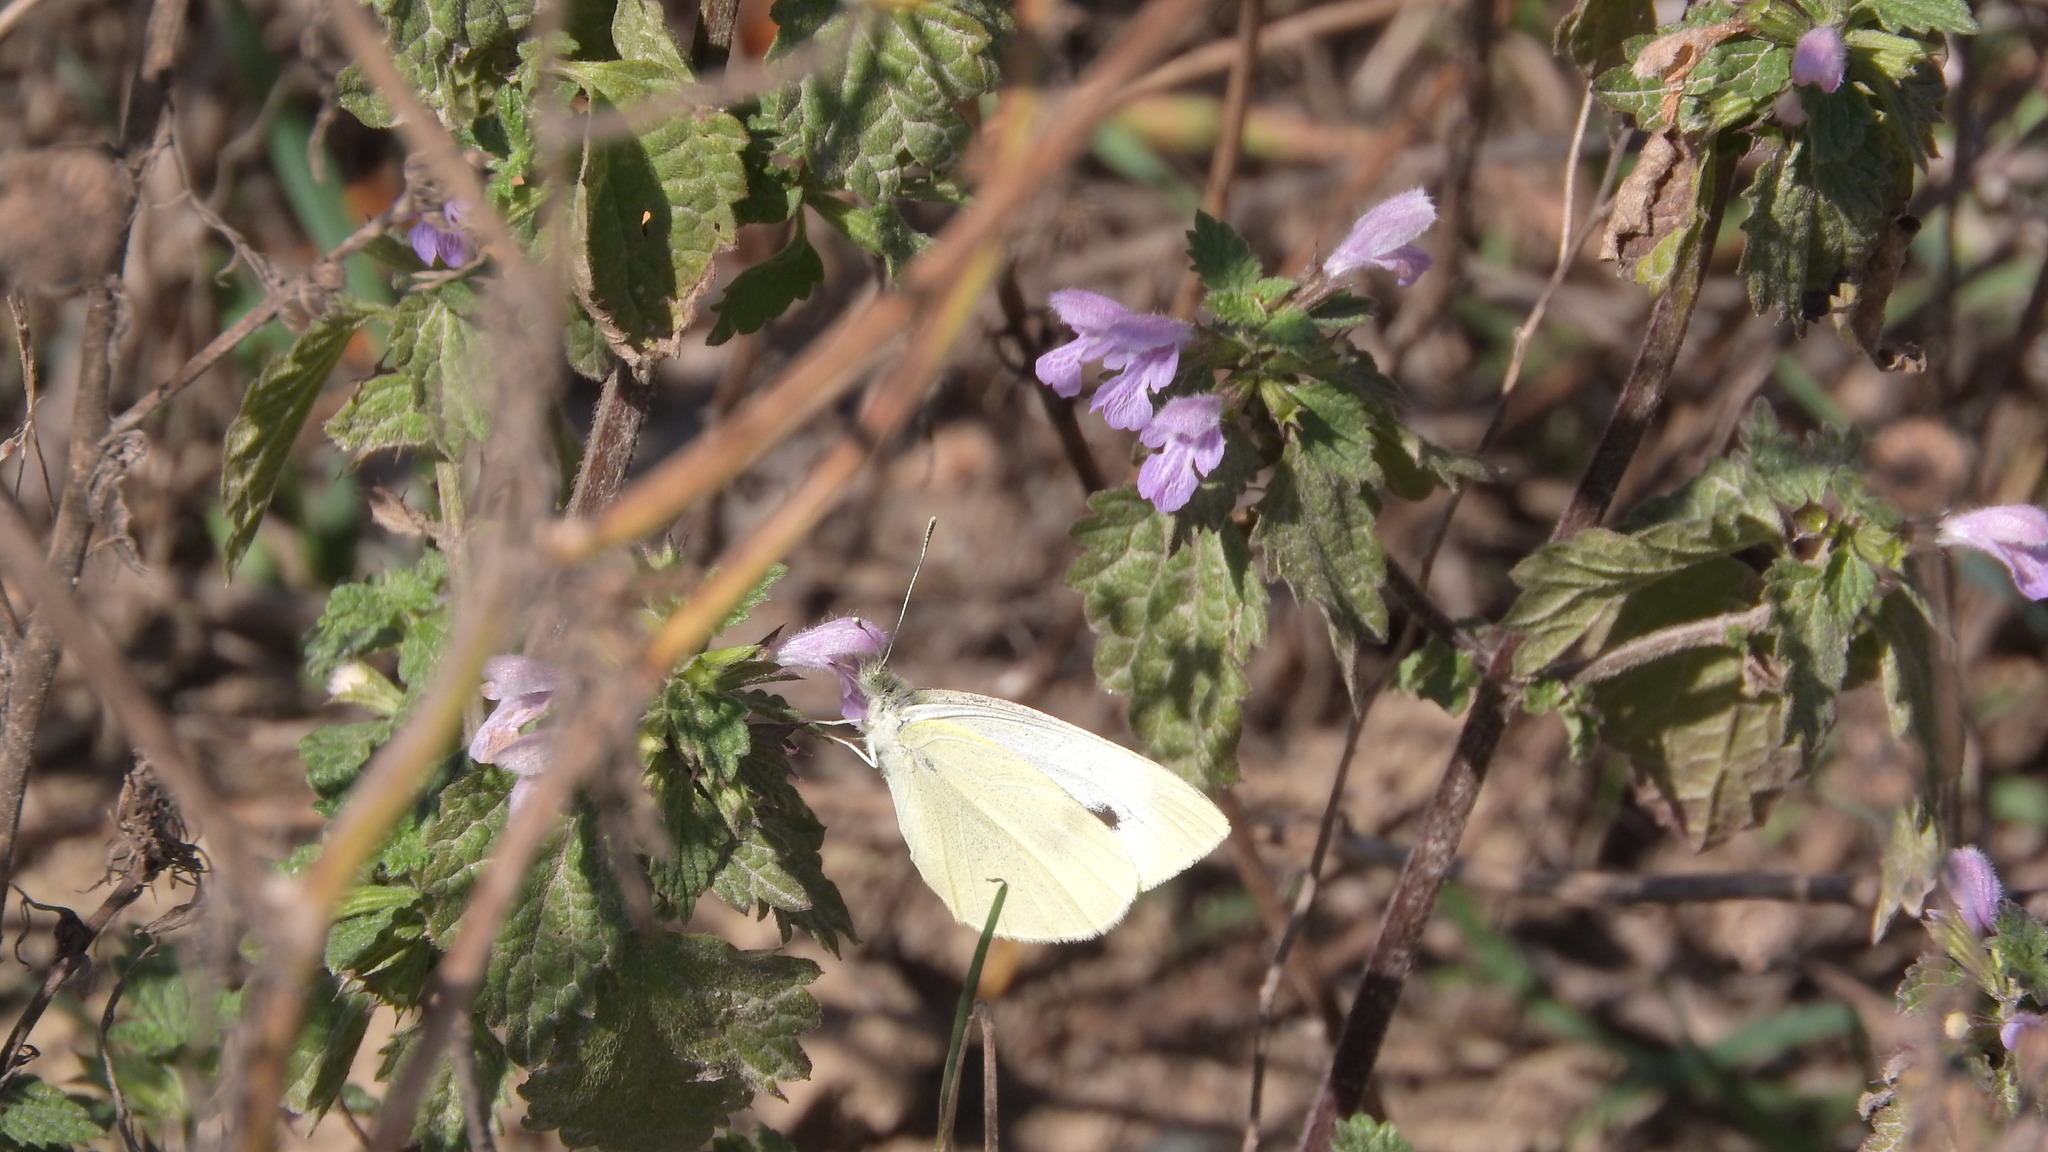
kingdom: Animalia
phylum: Arthropoda
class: Insecta
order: Lepidoptera
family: Pieridae
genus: Pieris
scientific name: Pieris rapae
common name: Small white
